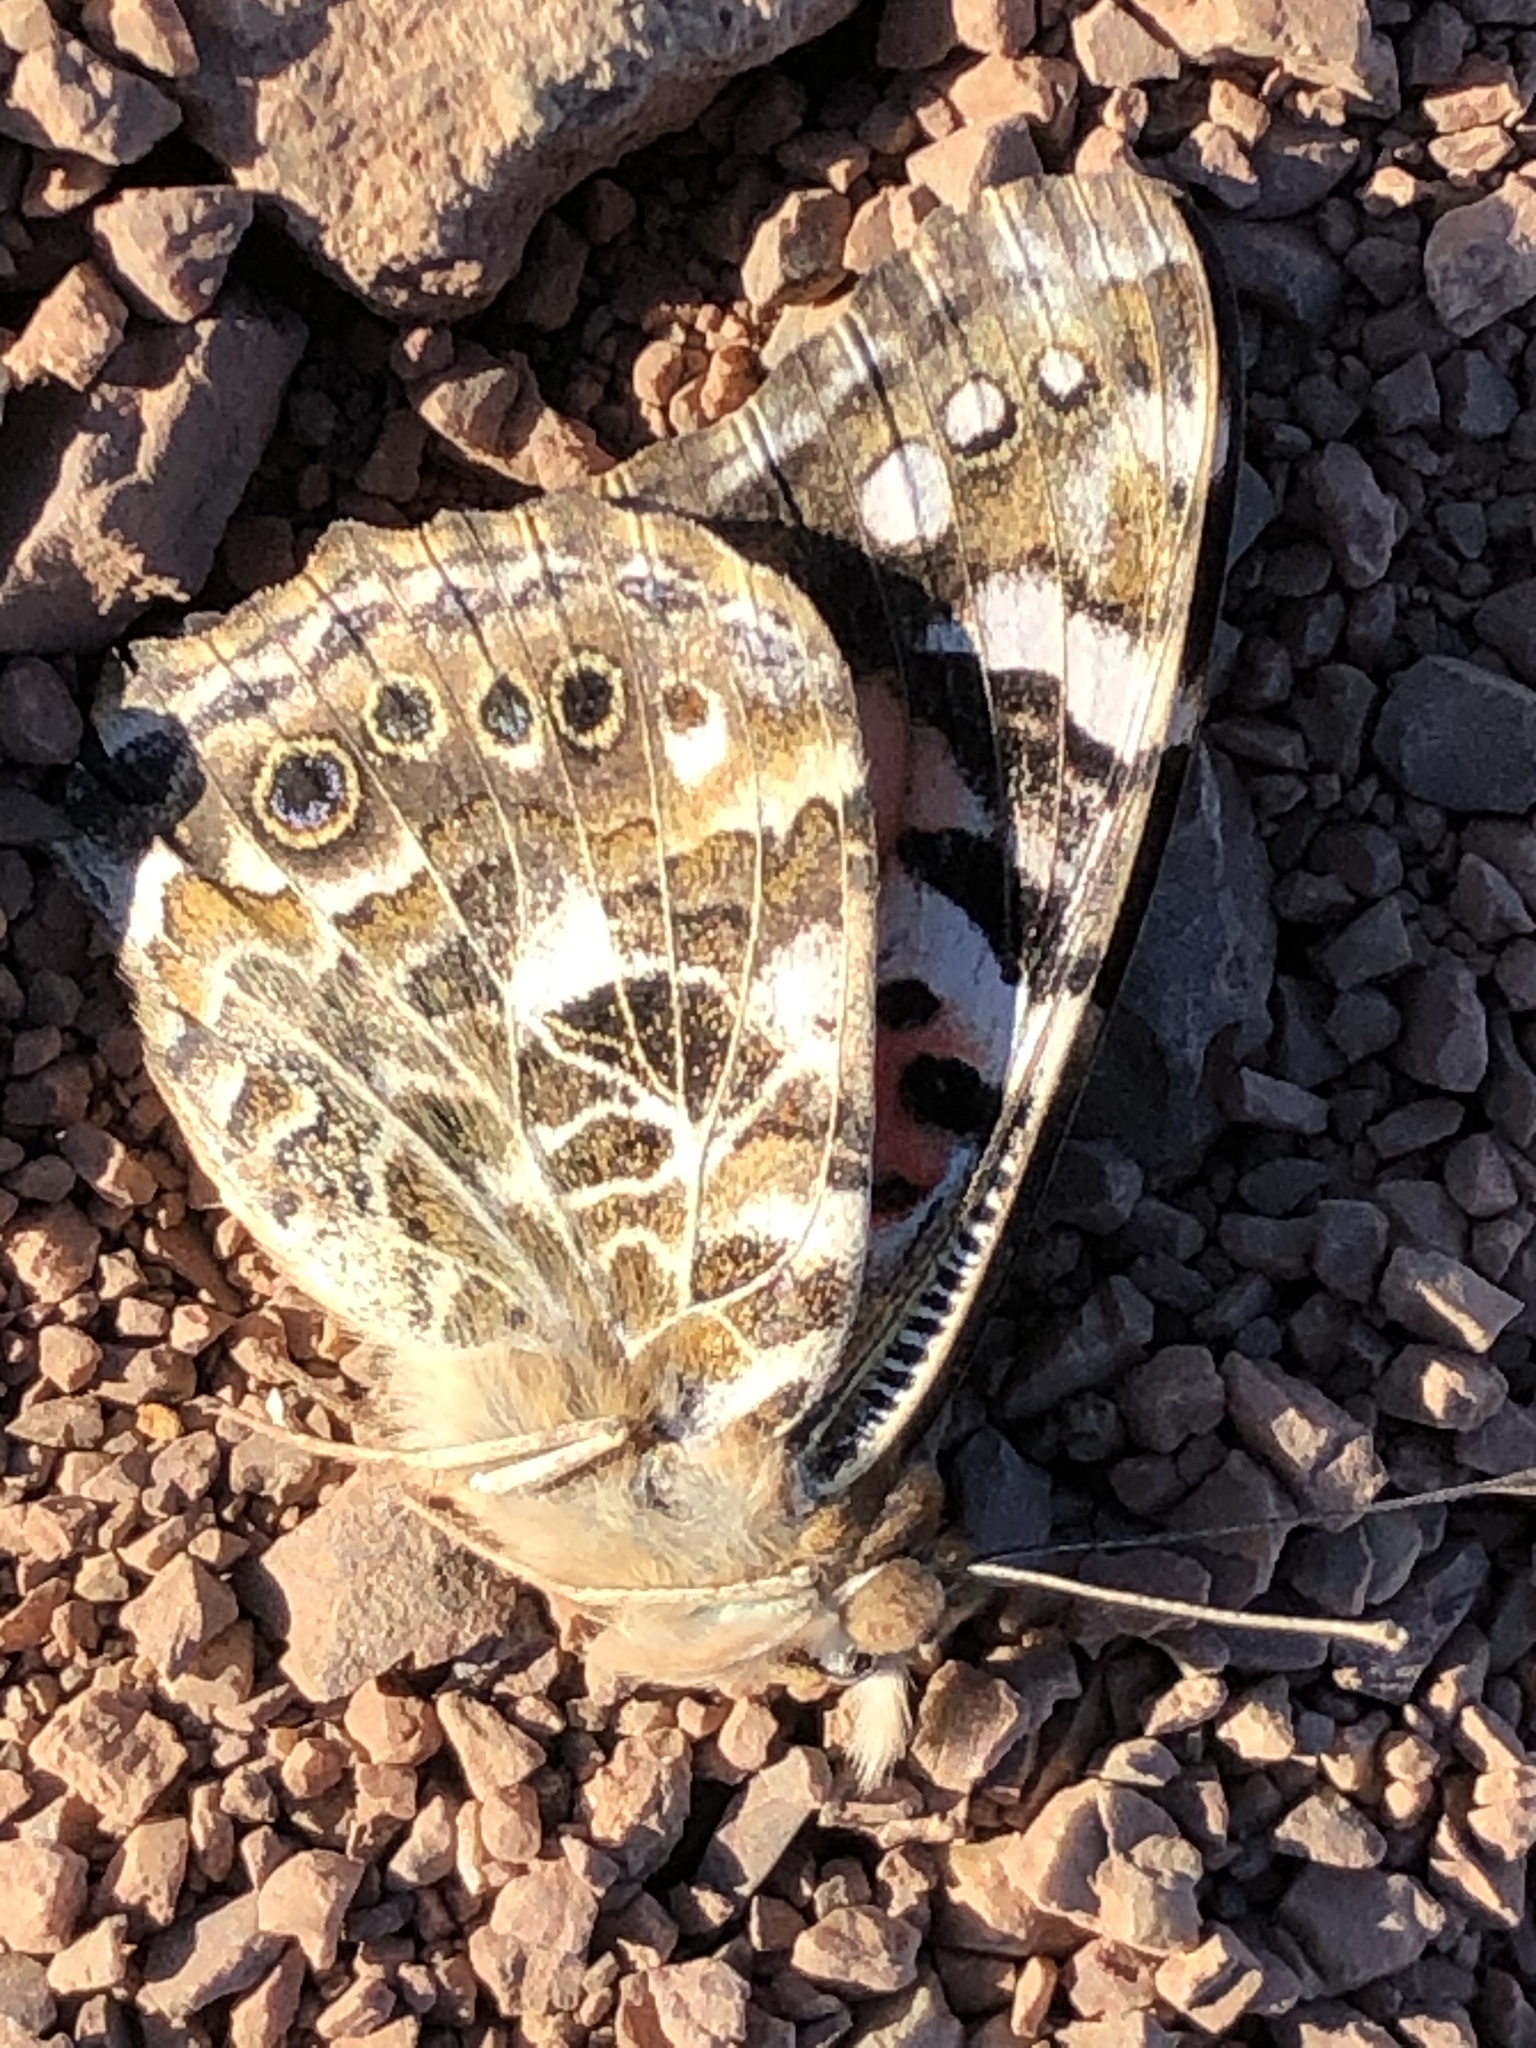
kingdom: Animalia
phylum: Arthropoda
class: Insecta
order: Lepidoptera
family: Nymphalidae
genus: Vanessa
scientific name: Vanessa cardui
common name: Painted lady
